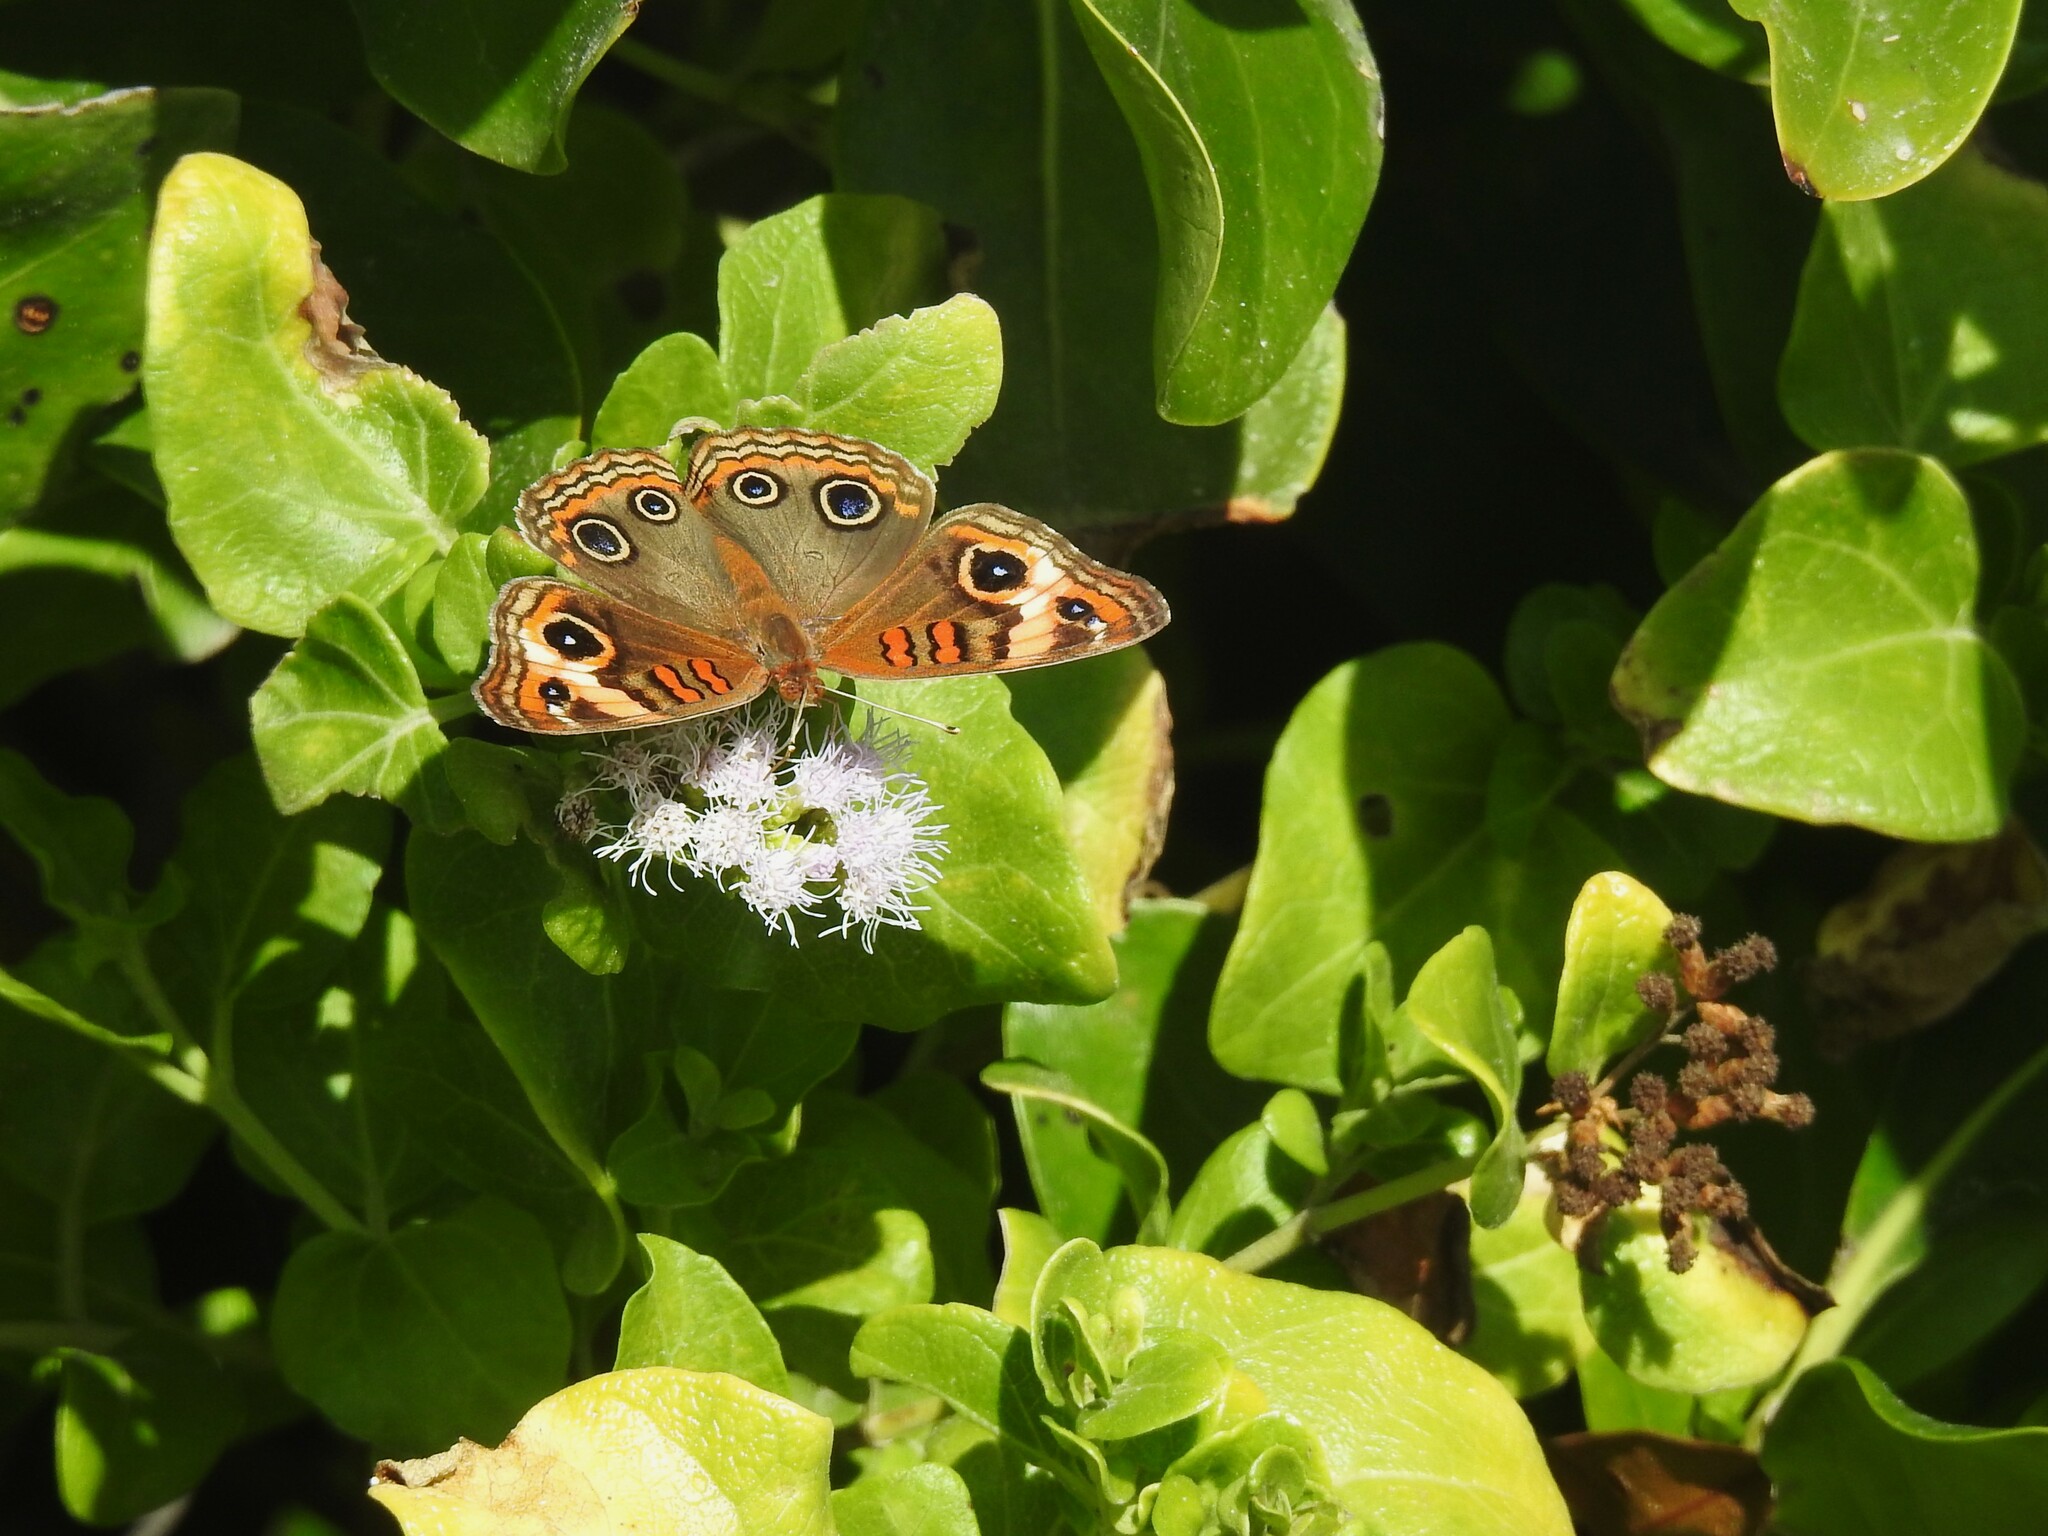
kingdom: Animalia
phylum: Arthropoda
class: Insecta
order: Lepidoptera
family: Nymphalidae
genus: Junonia
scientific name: Junonia lavinia
